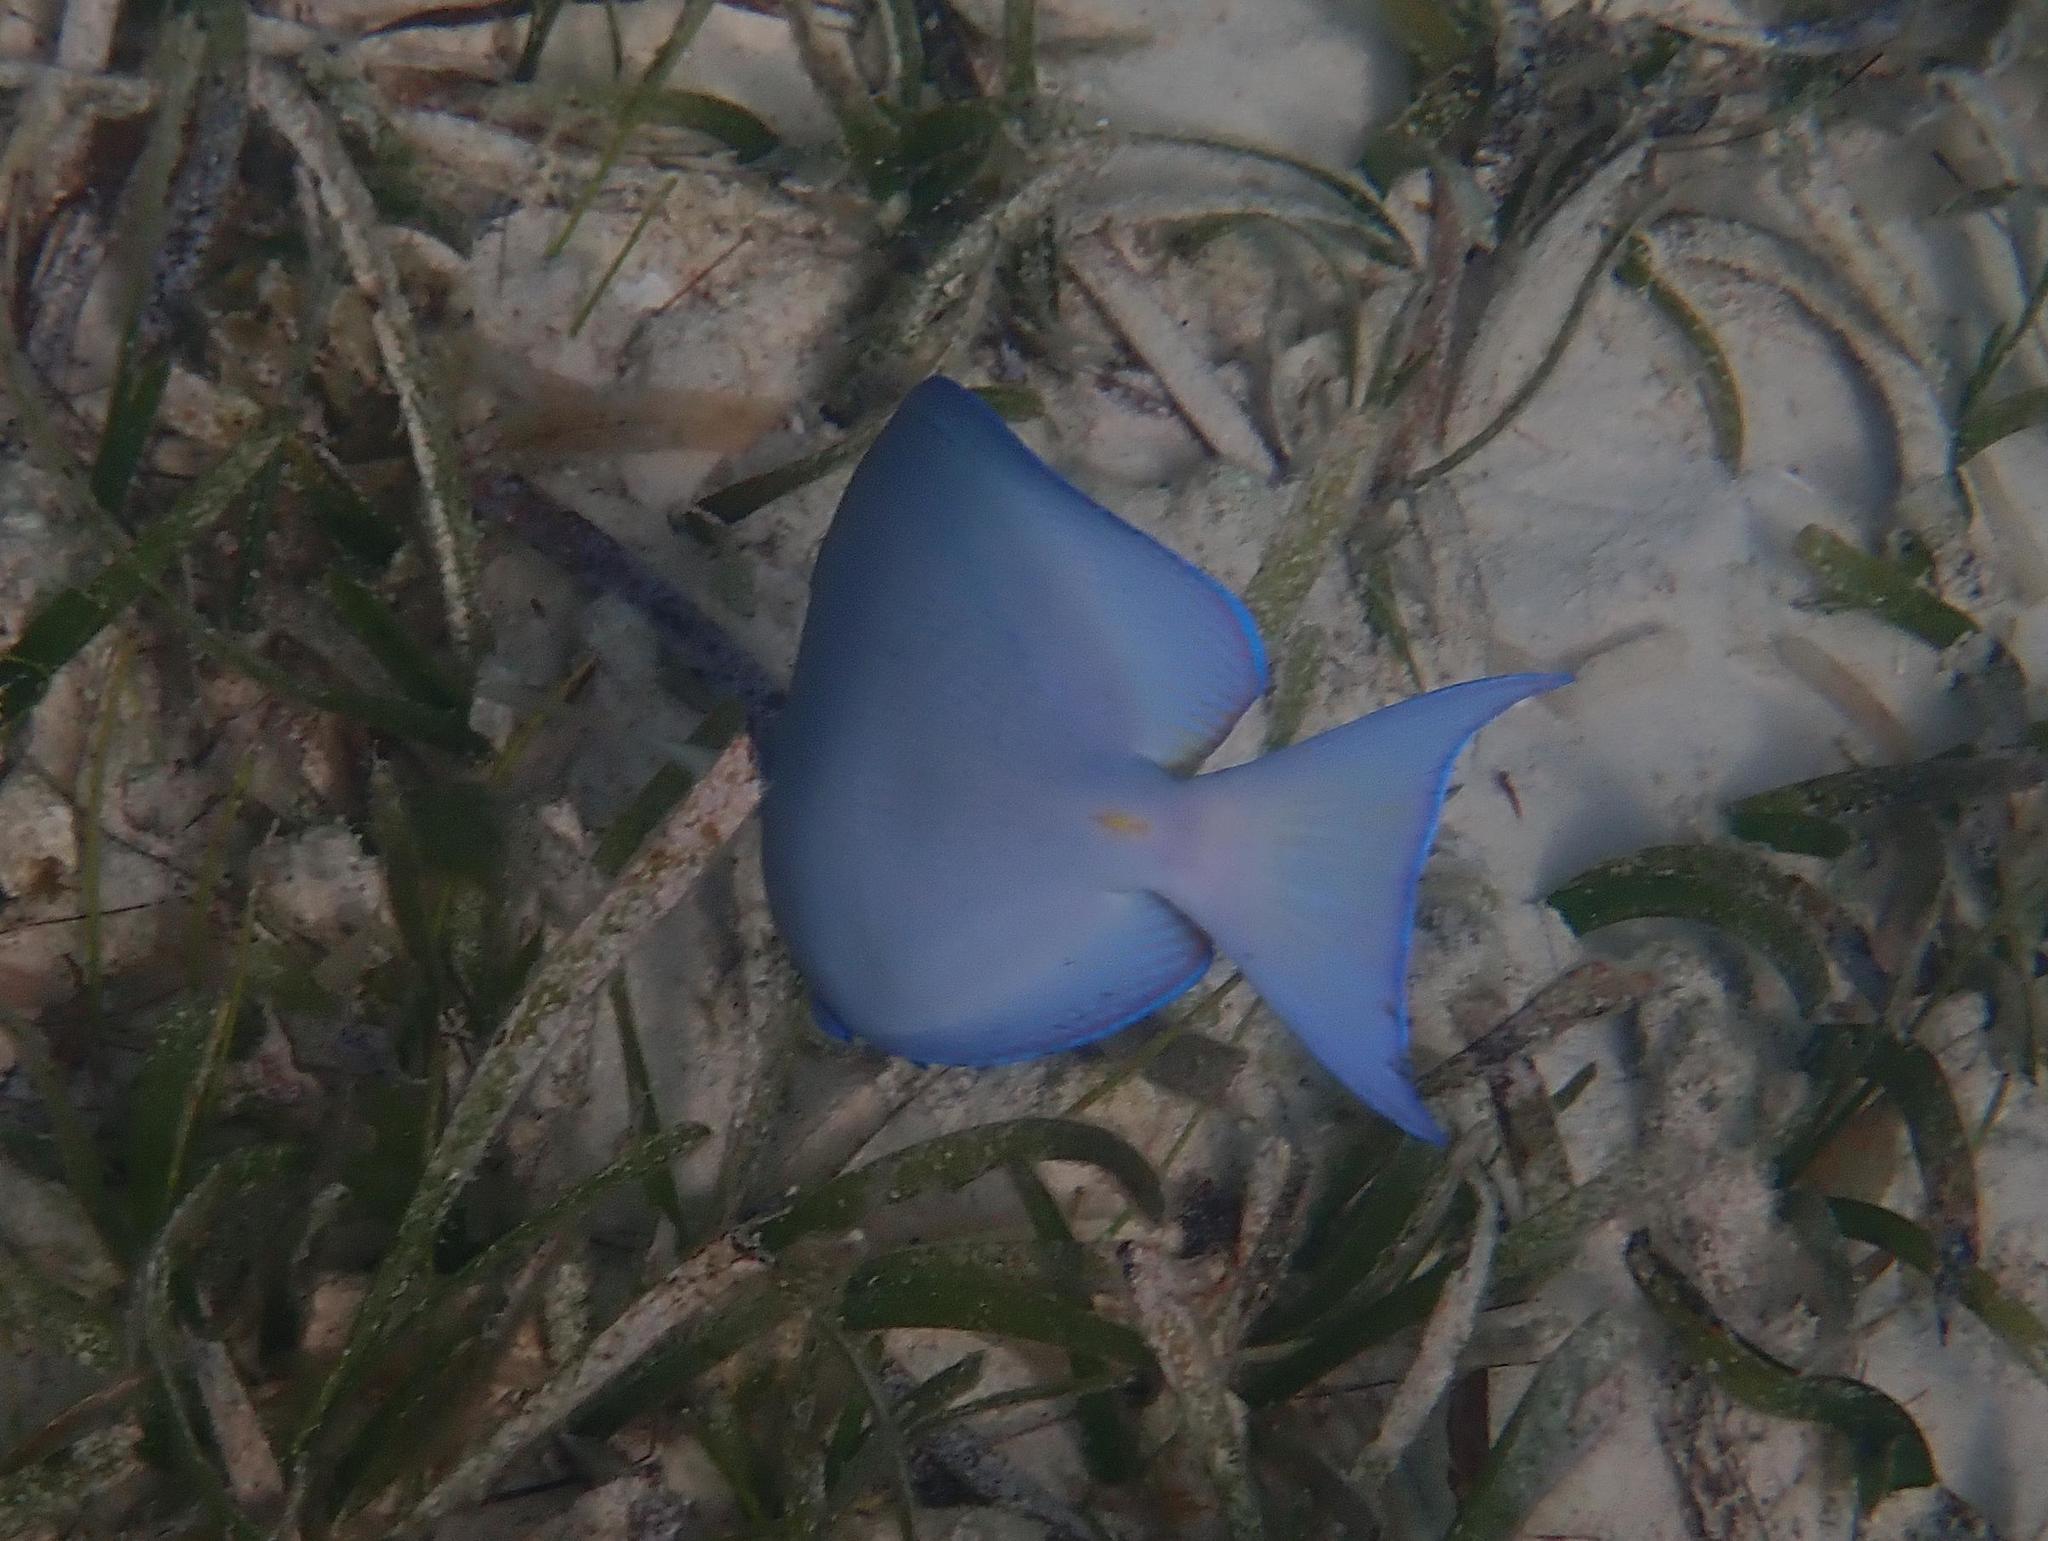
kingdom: Animalia
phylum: Chordata
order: Perciformes
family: Acanthuridae
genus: Acanthurus
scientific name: Acanthurus coeruleus
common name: Blue tang
